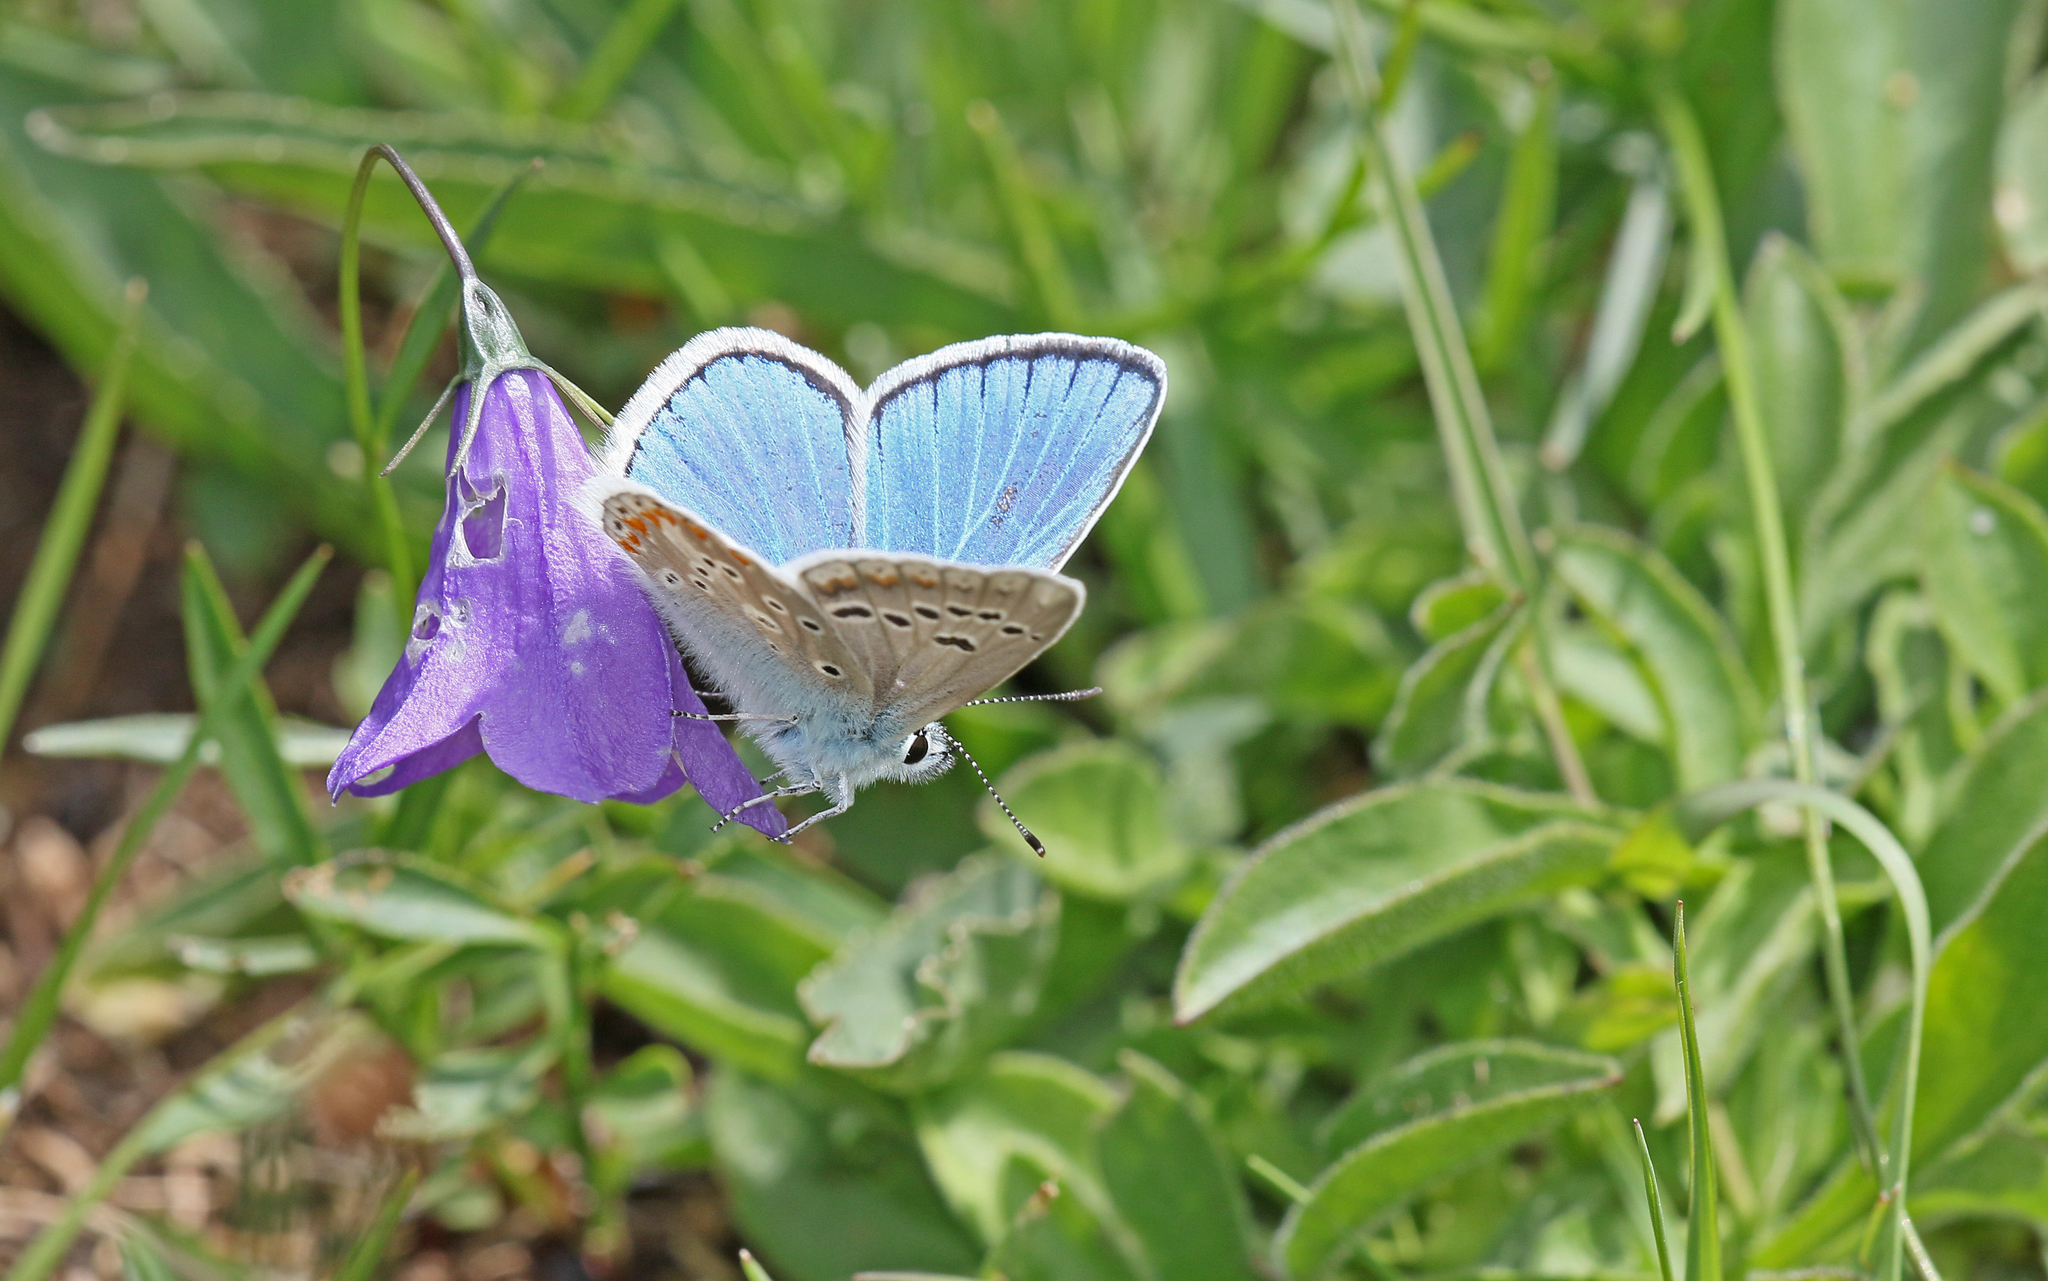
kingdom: Animalia
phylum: Arthropoda
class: Insecta
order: Lepidoptera
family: Lycaenidae
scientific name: Lycaenidae
